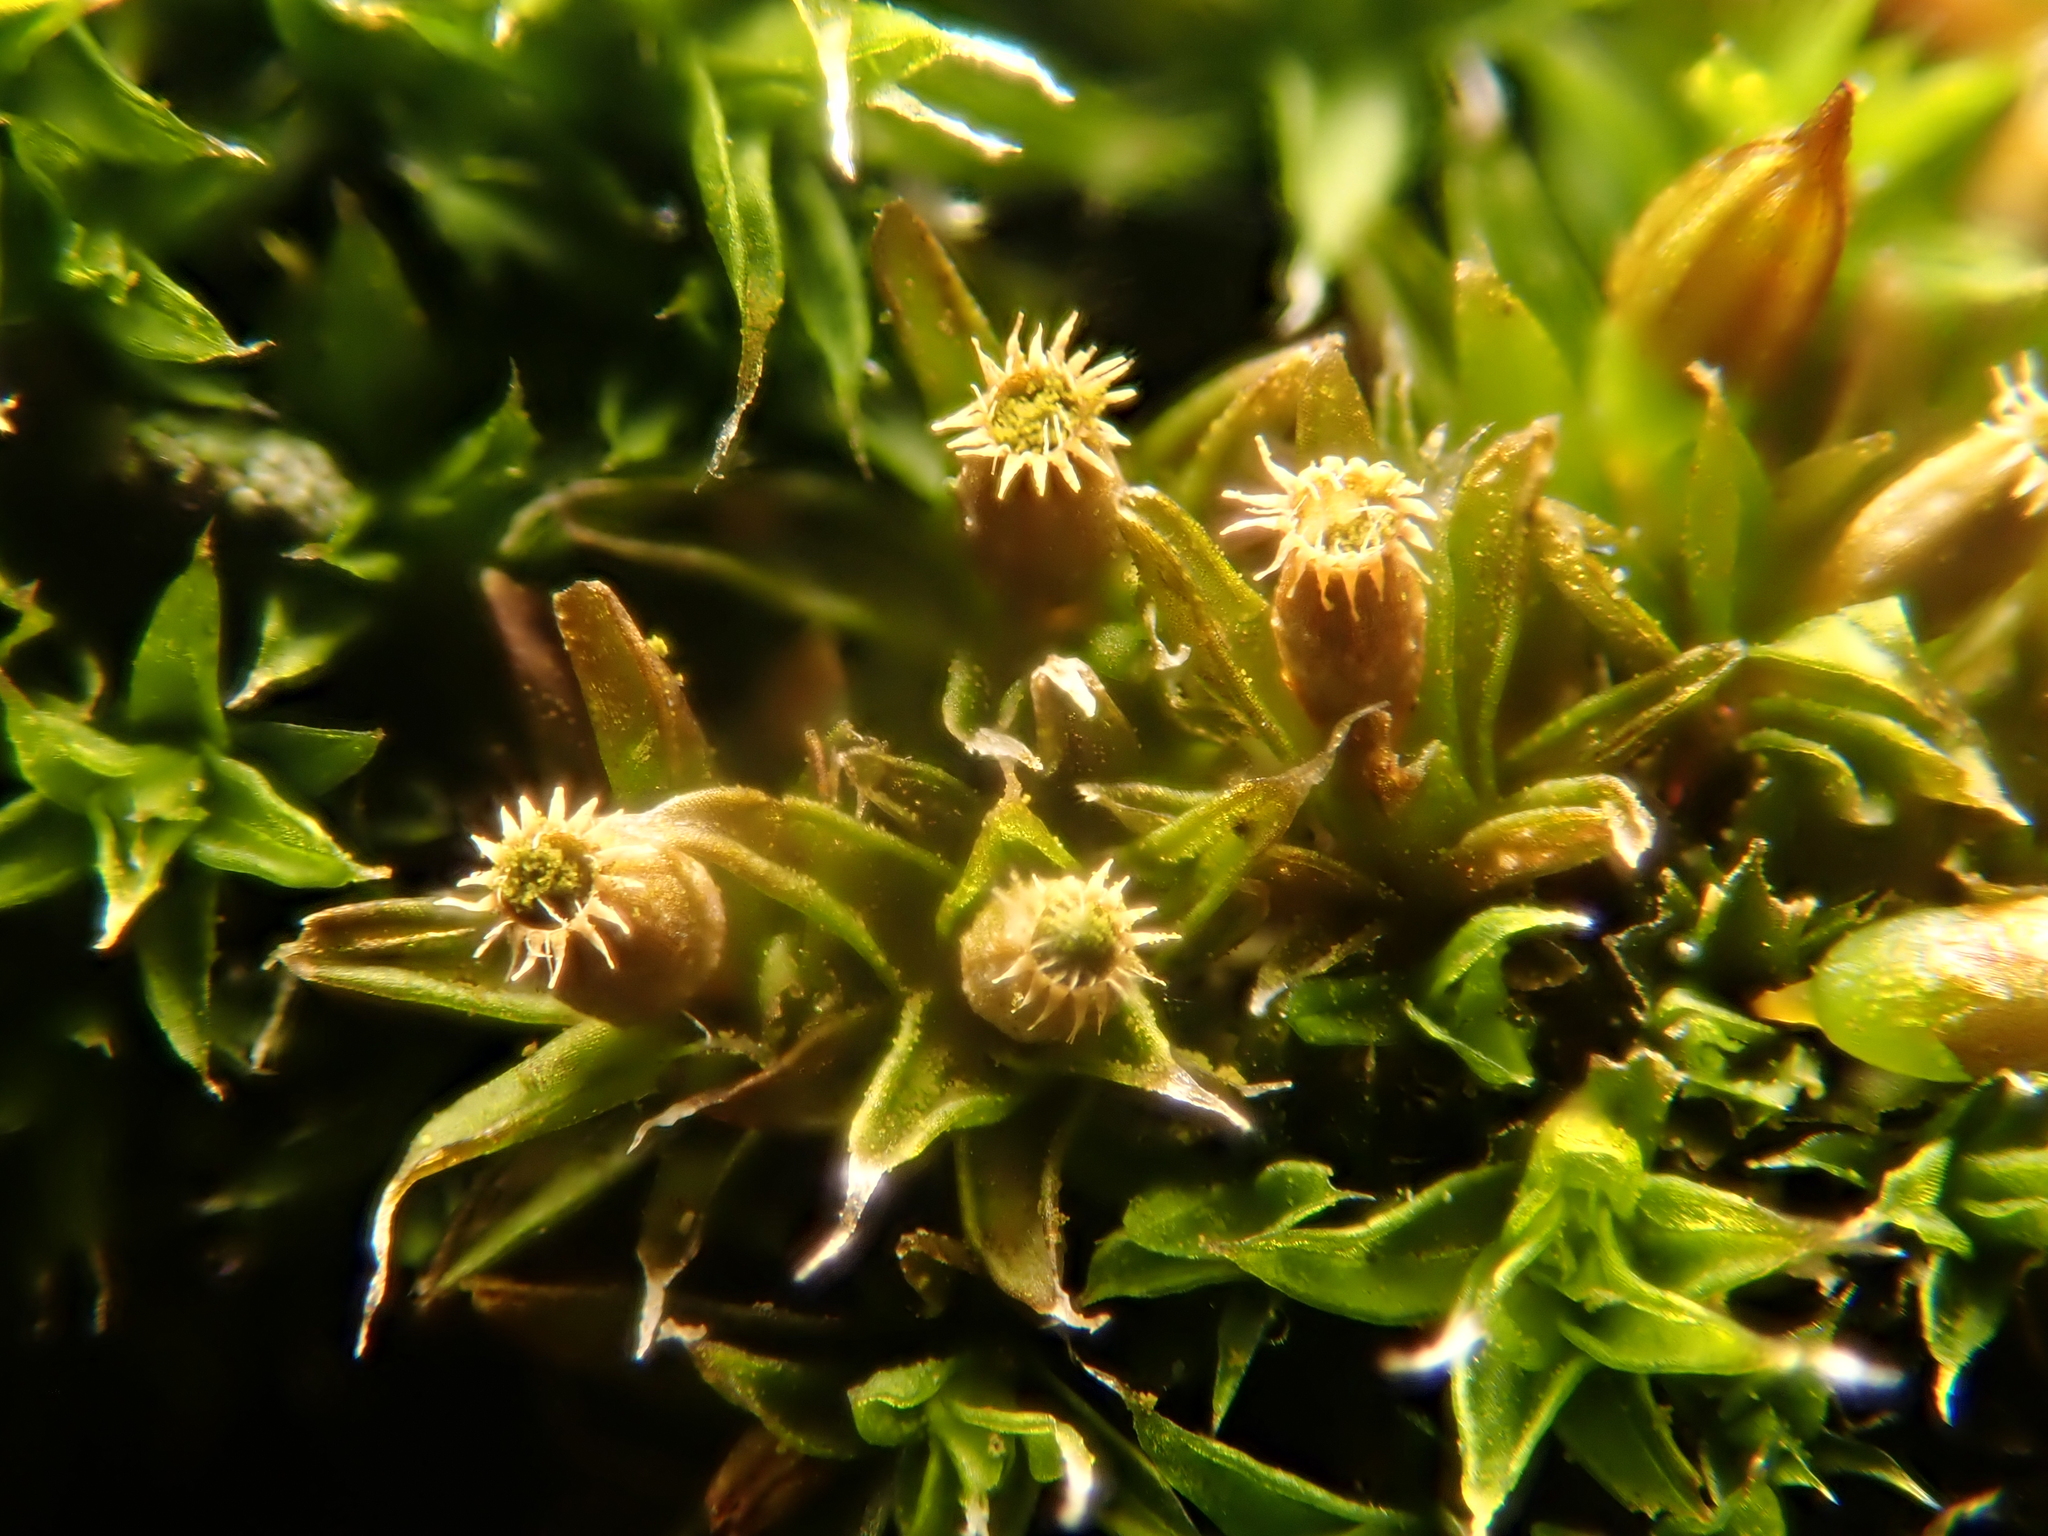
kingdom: Plantae
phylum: Bryophyta
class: Bryopsida
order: Orthotrichales
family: Orthotrichaceae
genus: Orthotrichum
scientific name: Orthotrichum diaphanum
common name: White-tipped bristle-moss
